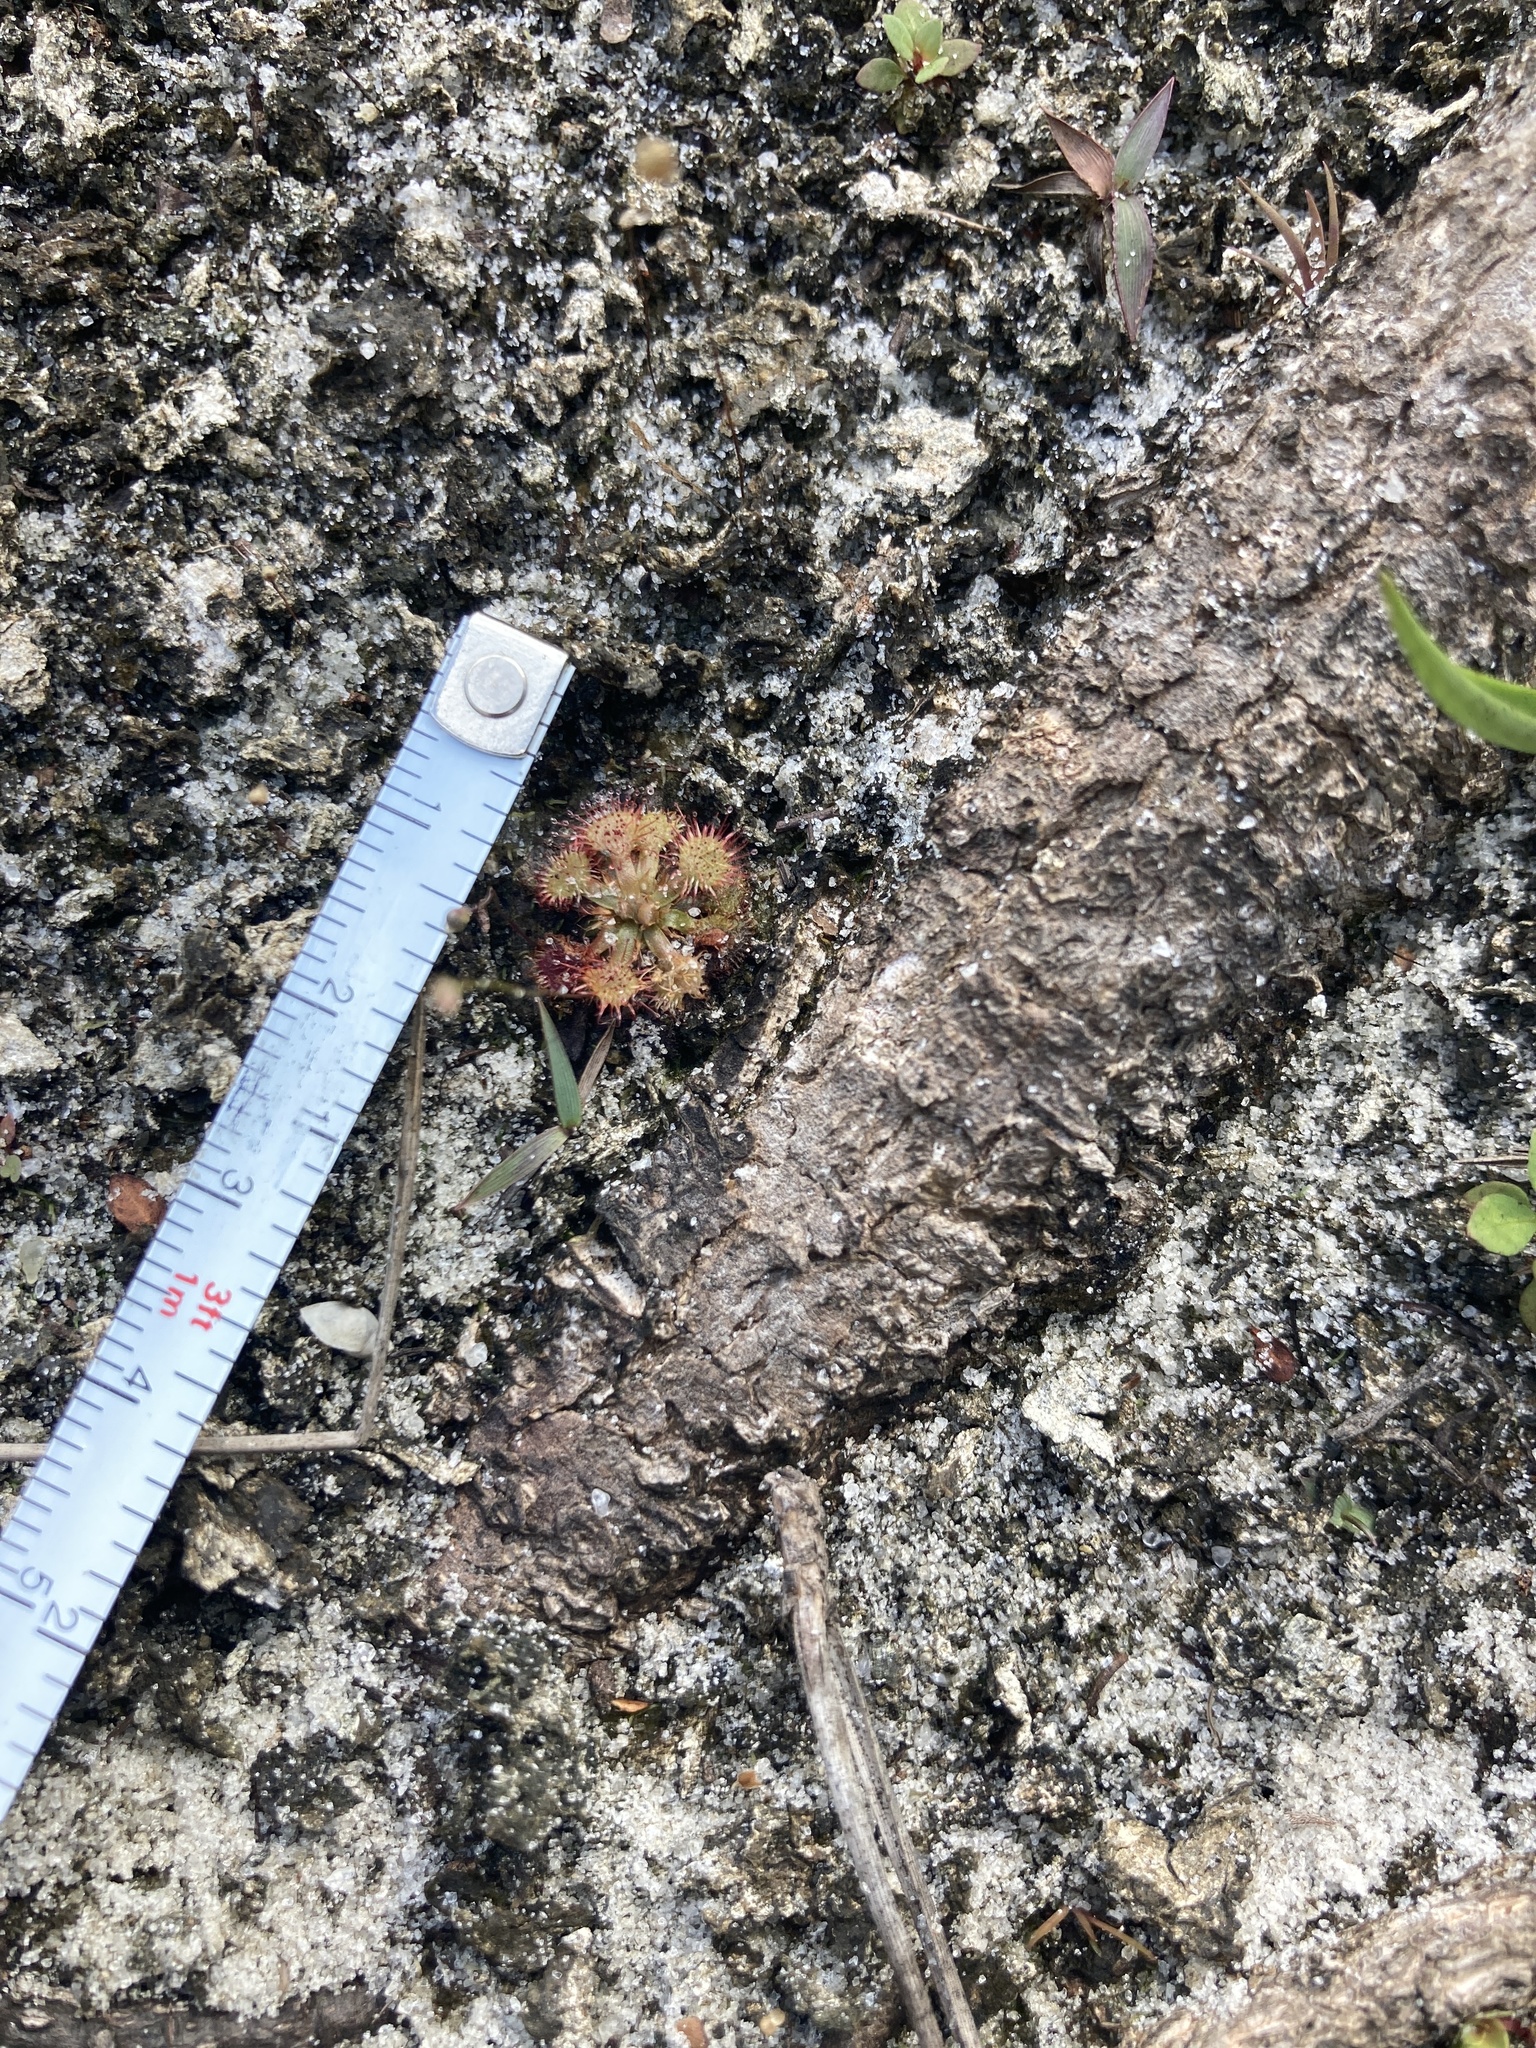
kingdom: Plantae
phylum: Tracheophyta
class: Magnoliopsida
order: Caryophyllales
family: Droseraceae
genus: Drosera
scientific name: Drosera capillaris
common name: Pink sundew
